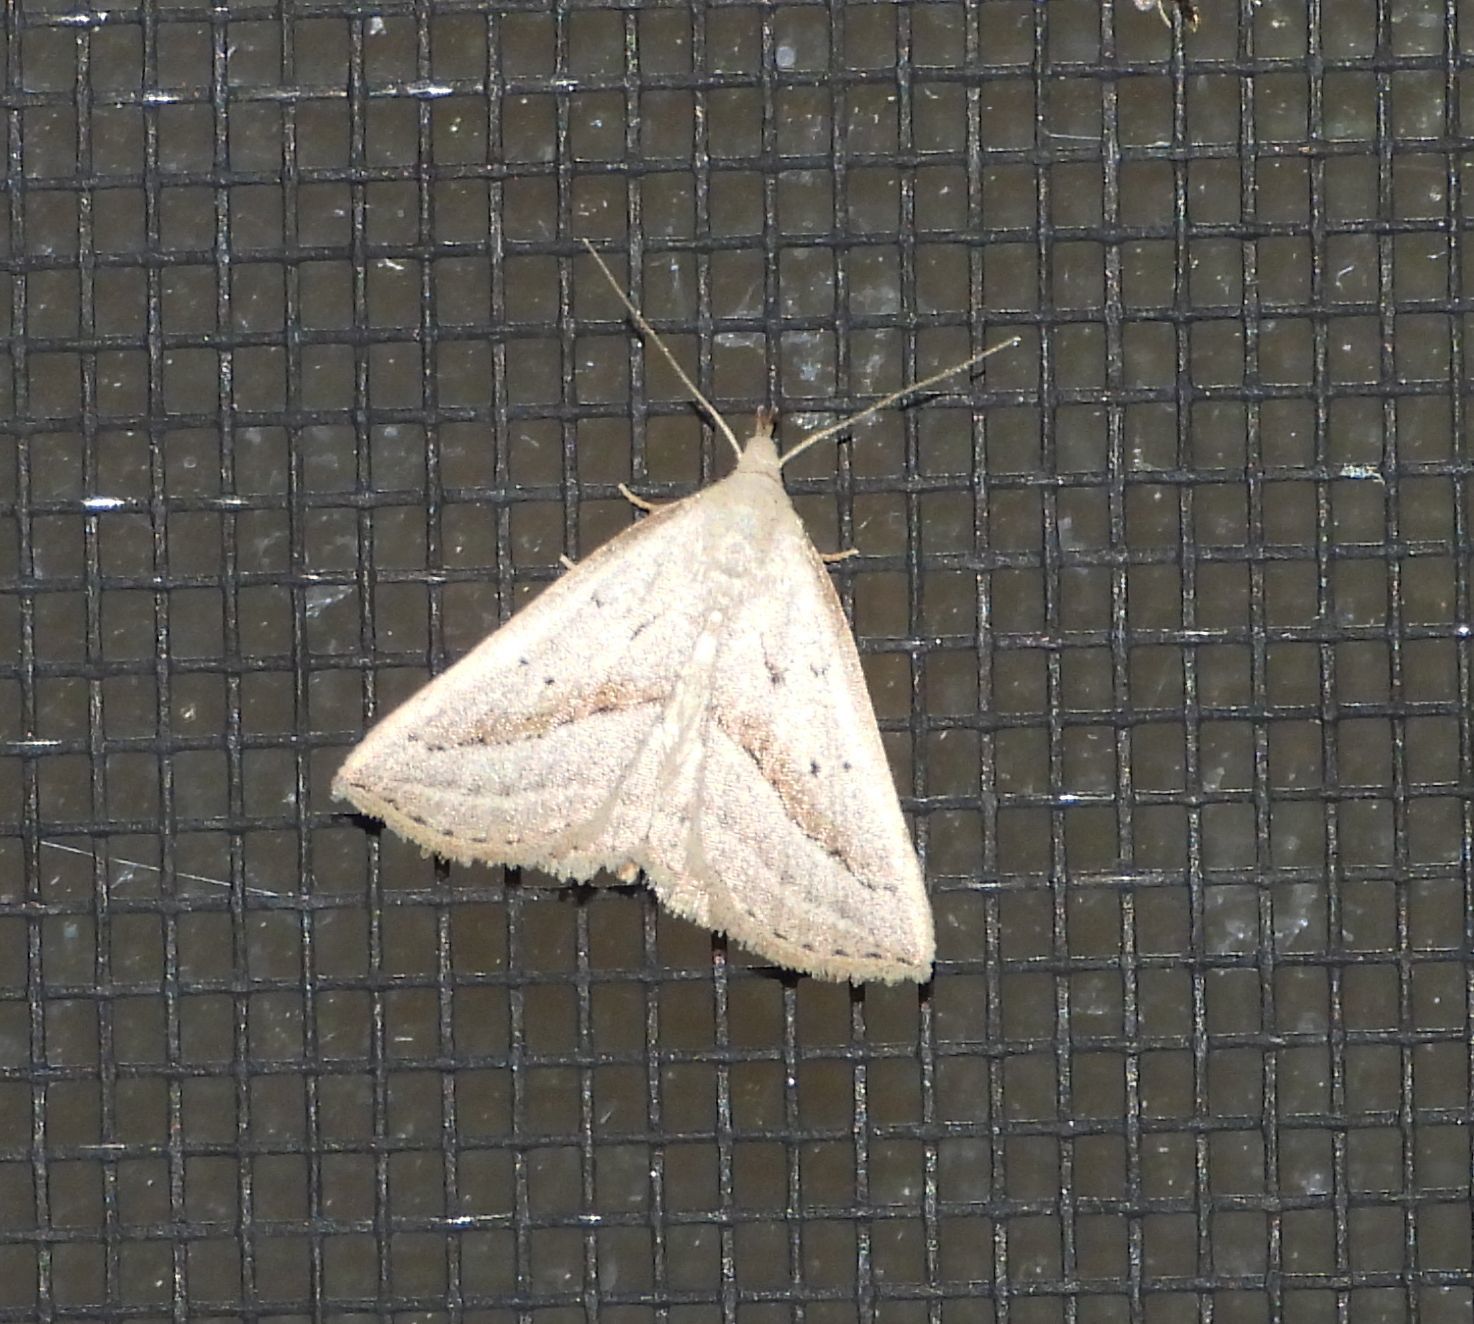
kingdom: Animalia
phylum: Arthropoda
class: Insecta
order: Lepidoptera
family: Erebidae
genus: Macrochilo
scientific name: Macrochilo hypocritalis
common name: Twin-dotted owlet
